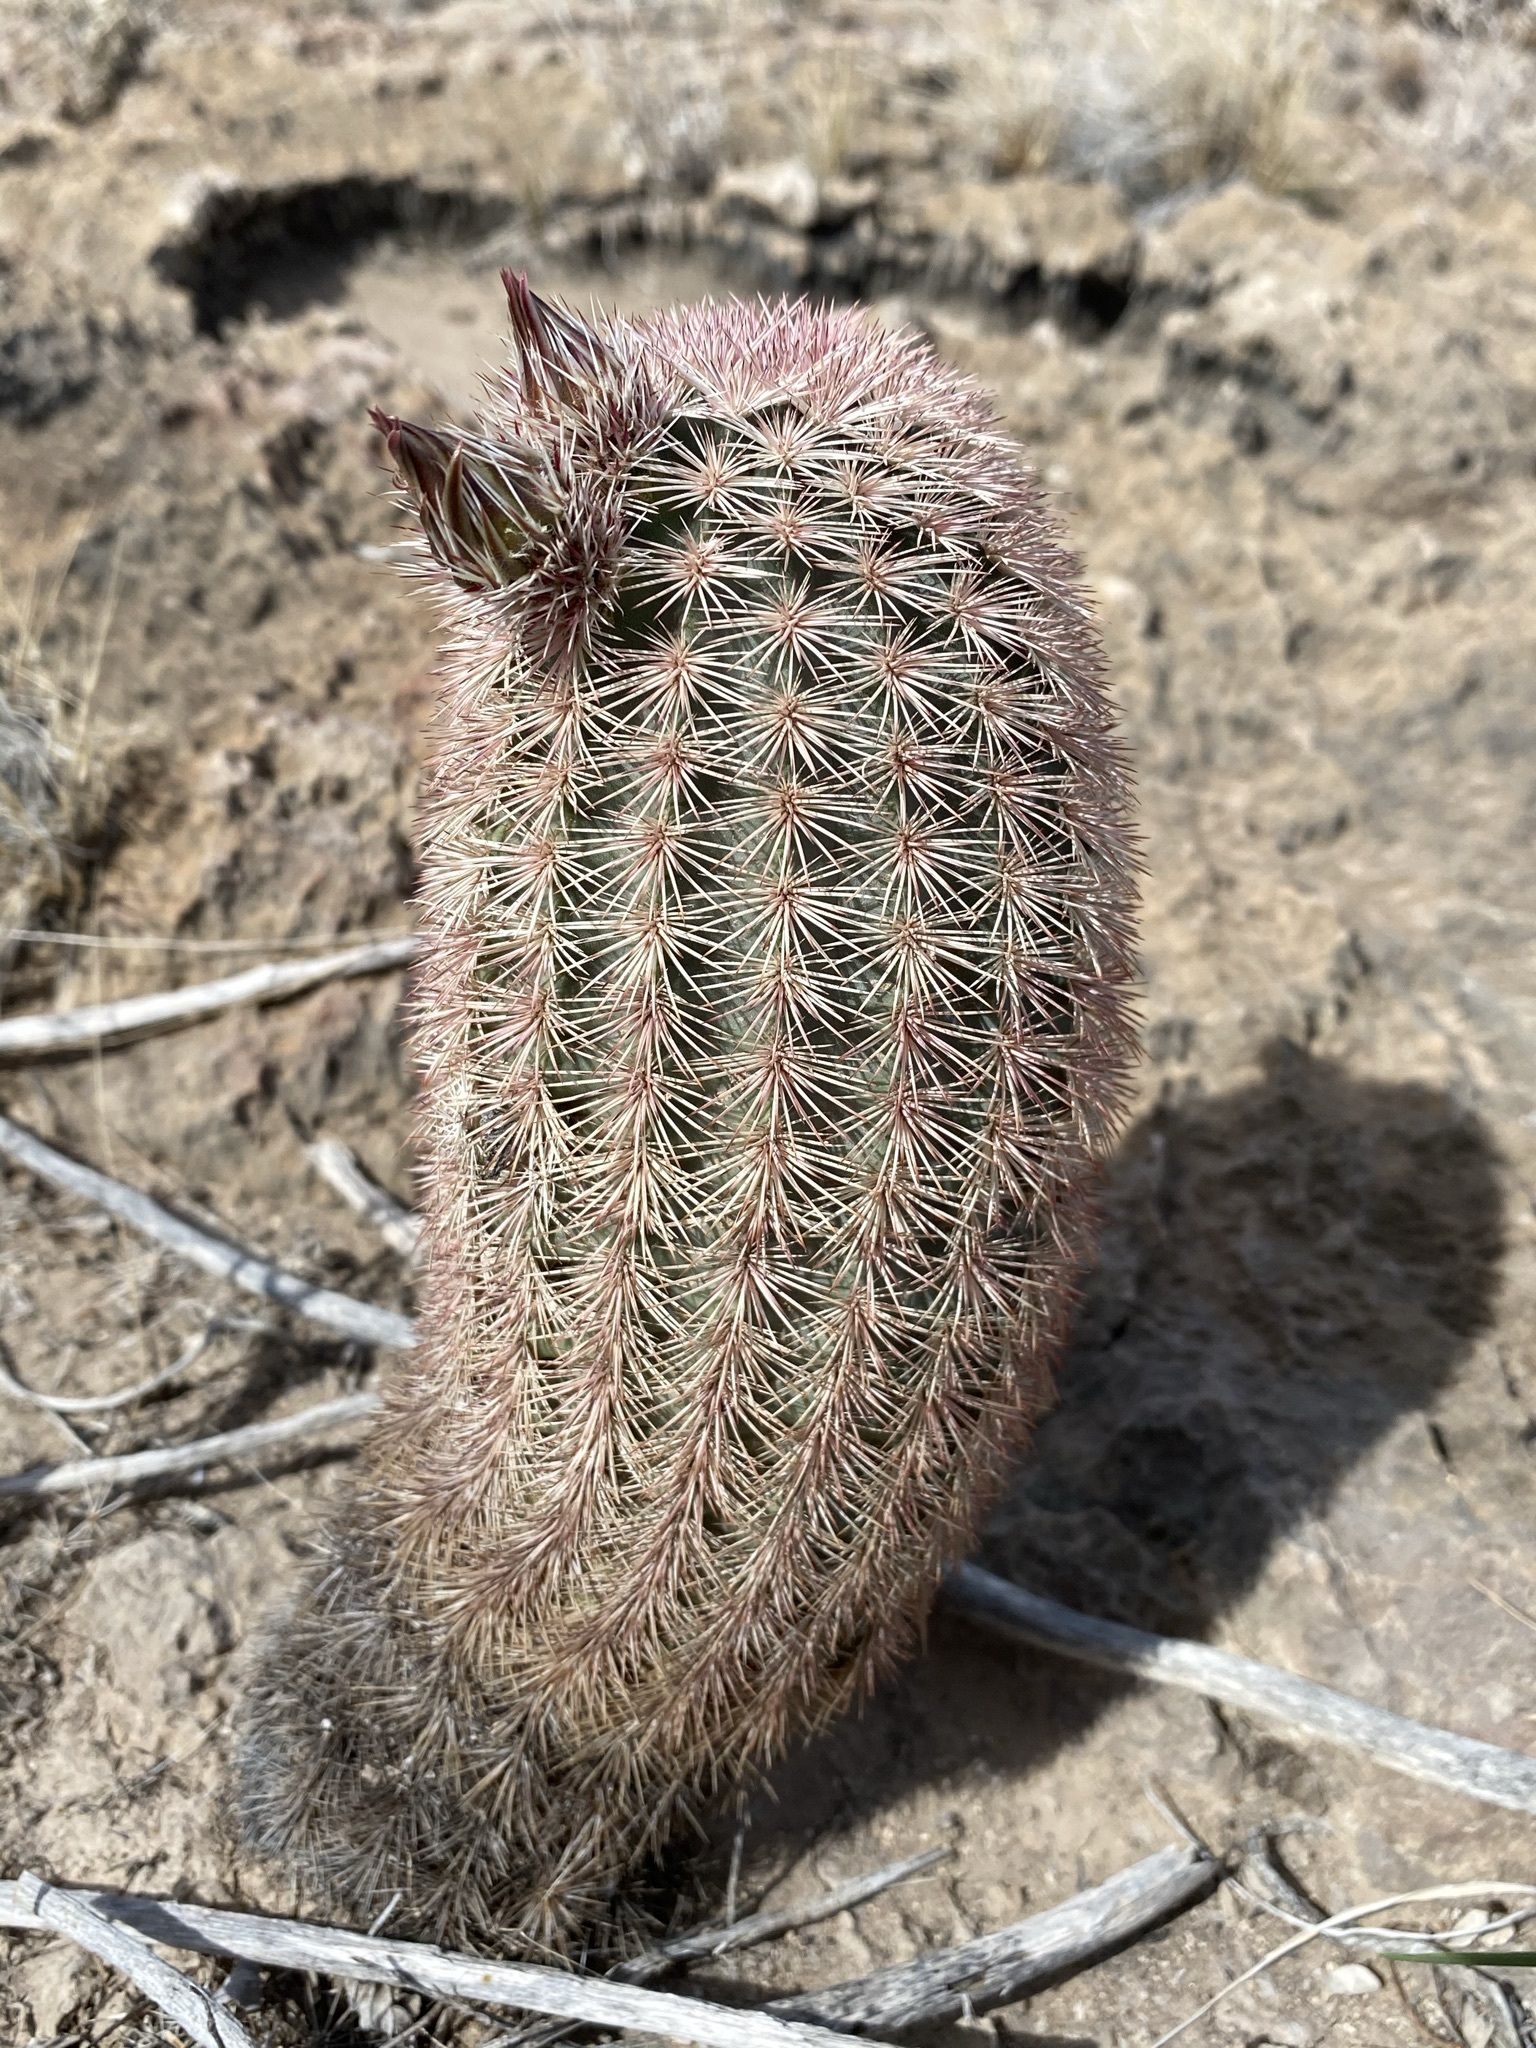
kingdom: Plantae
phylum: Tracheophyta
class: Magnoliopsida
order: Caryophyllales
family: Cactaceae
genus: Echinocereus
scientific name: Echinocereus dasyacanthus
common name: Spiny hedgehog cactus
